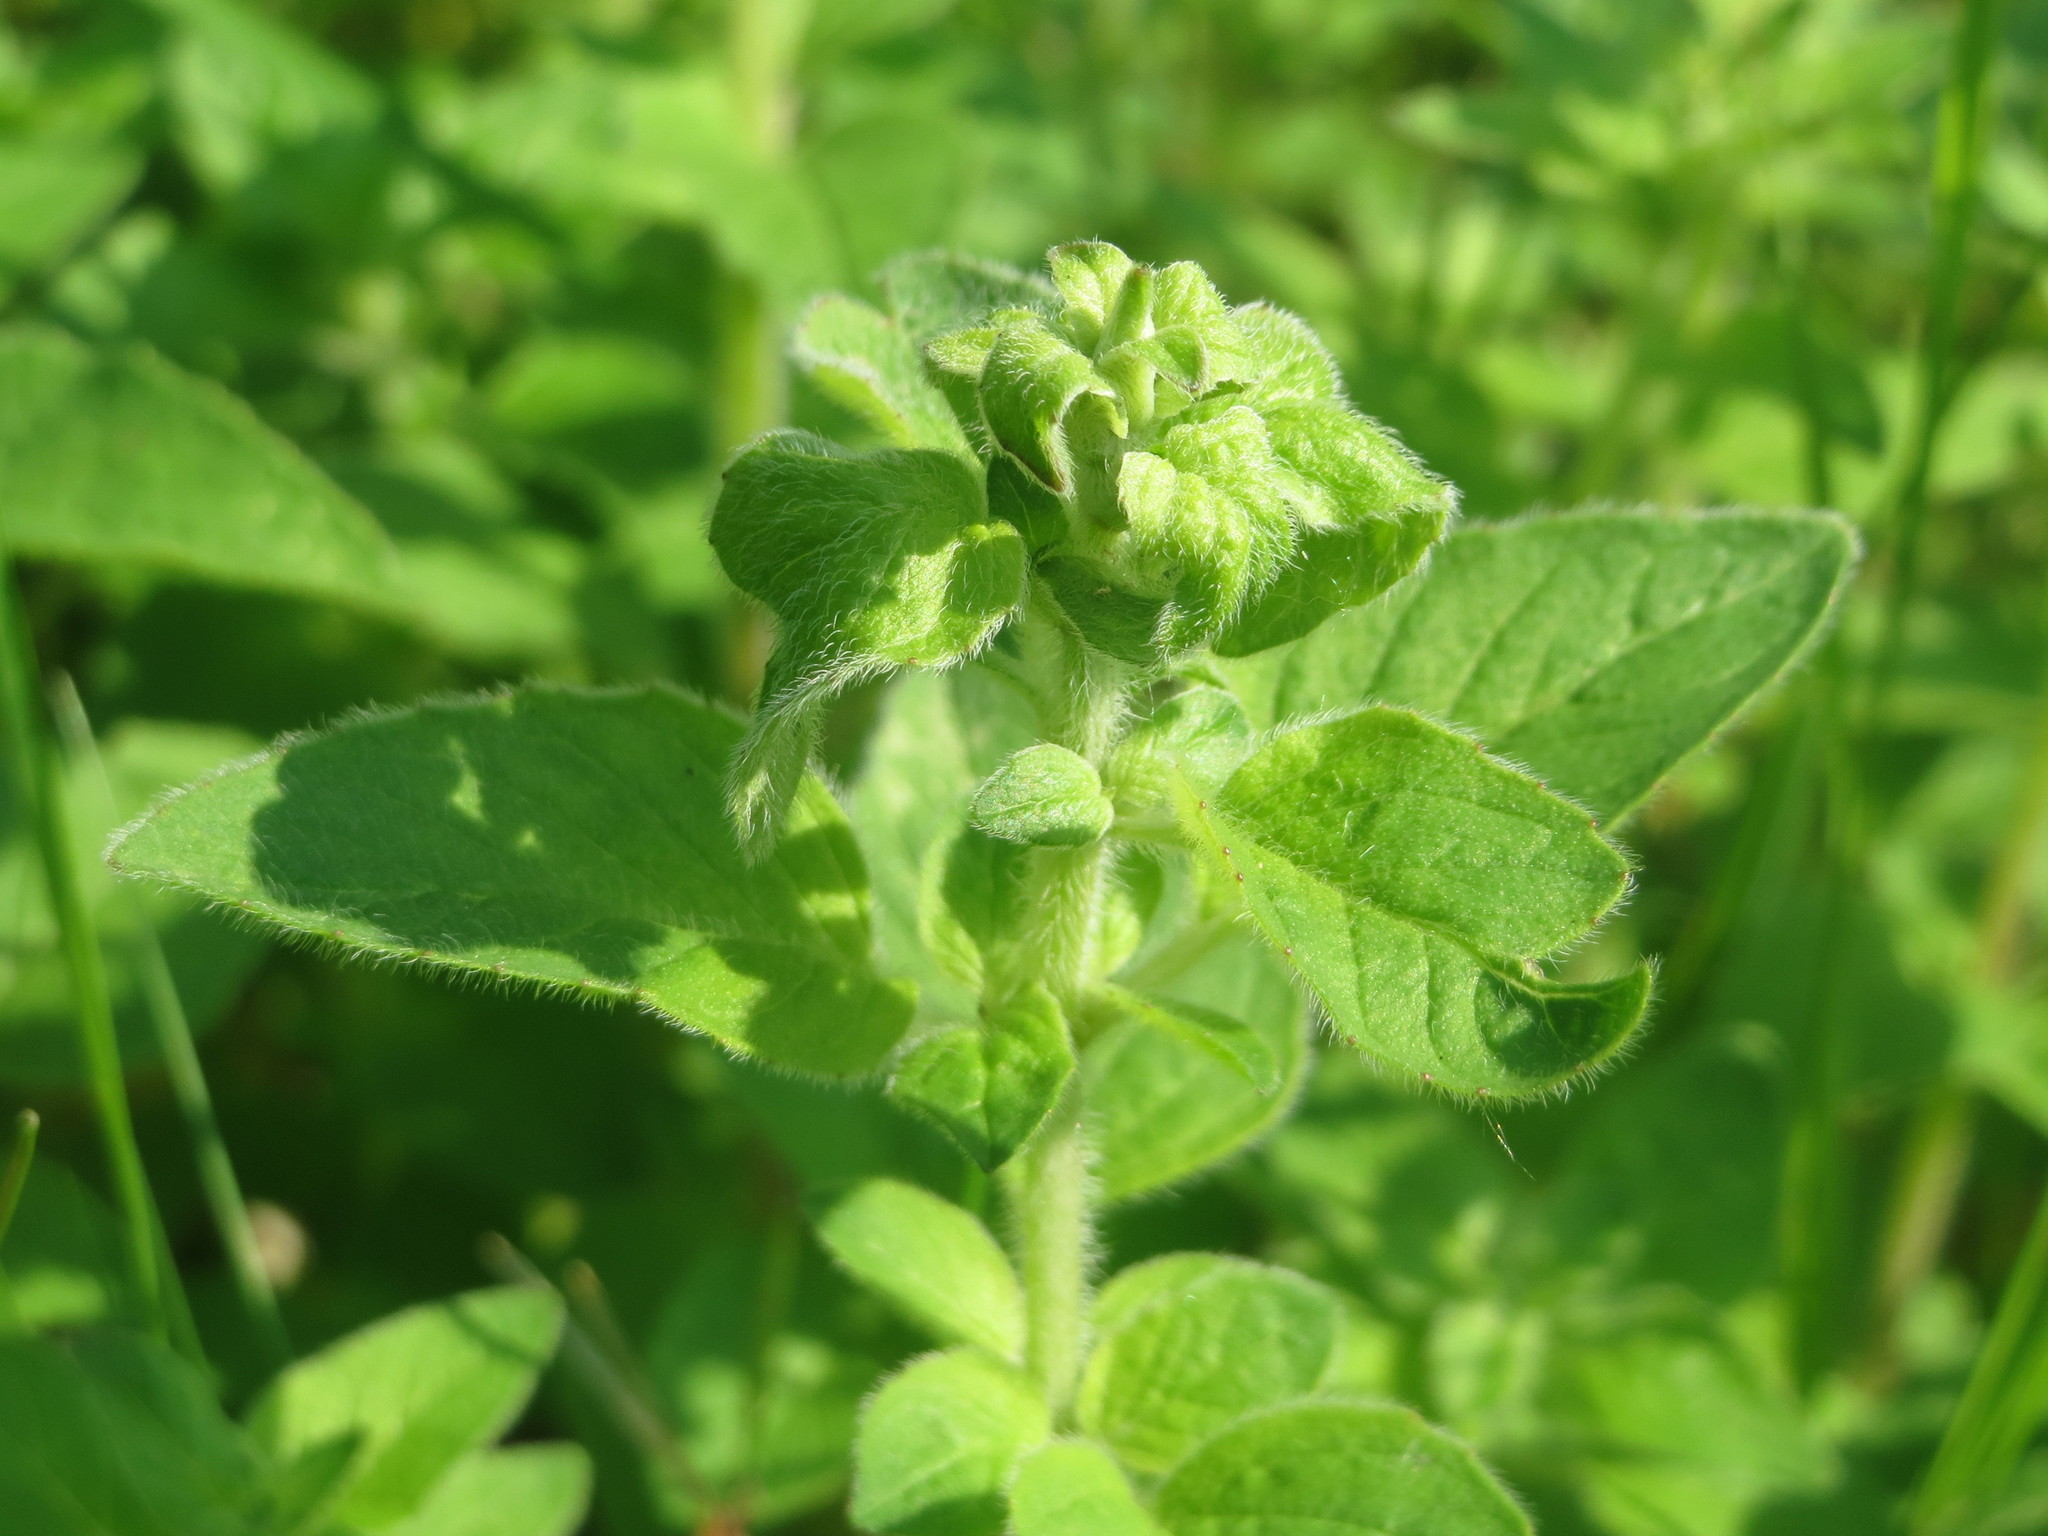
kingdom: Plantae
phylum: Tracheophyta
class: Magnoliopsida
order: Lamiales
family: Lamiaceae
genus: Origanum
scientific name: Origanum vulgare
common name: Wild marjoram
